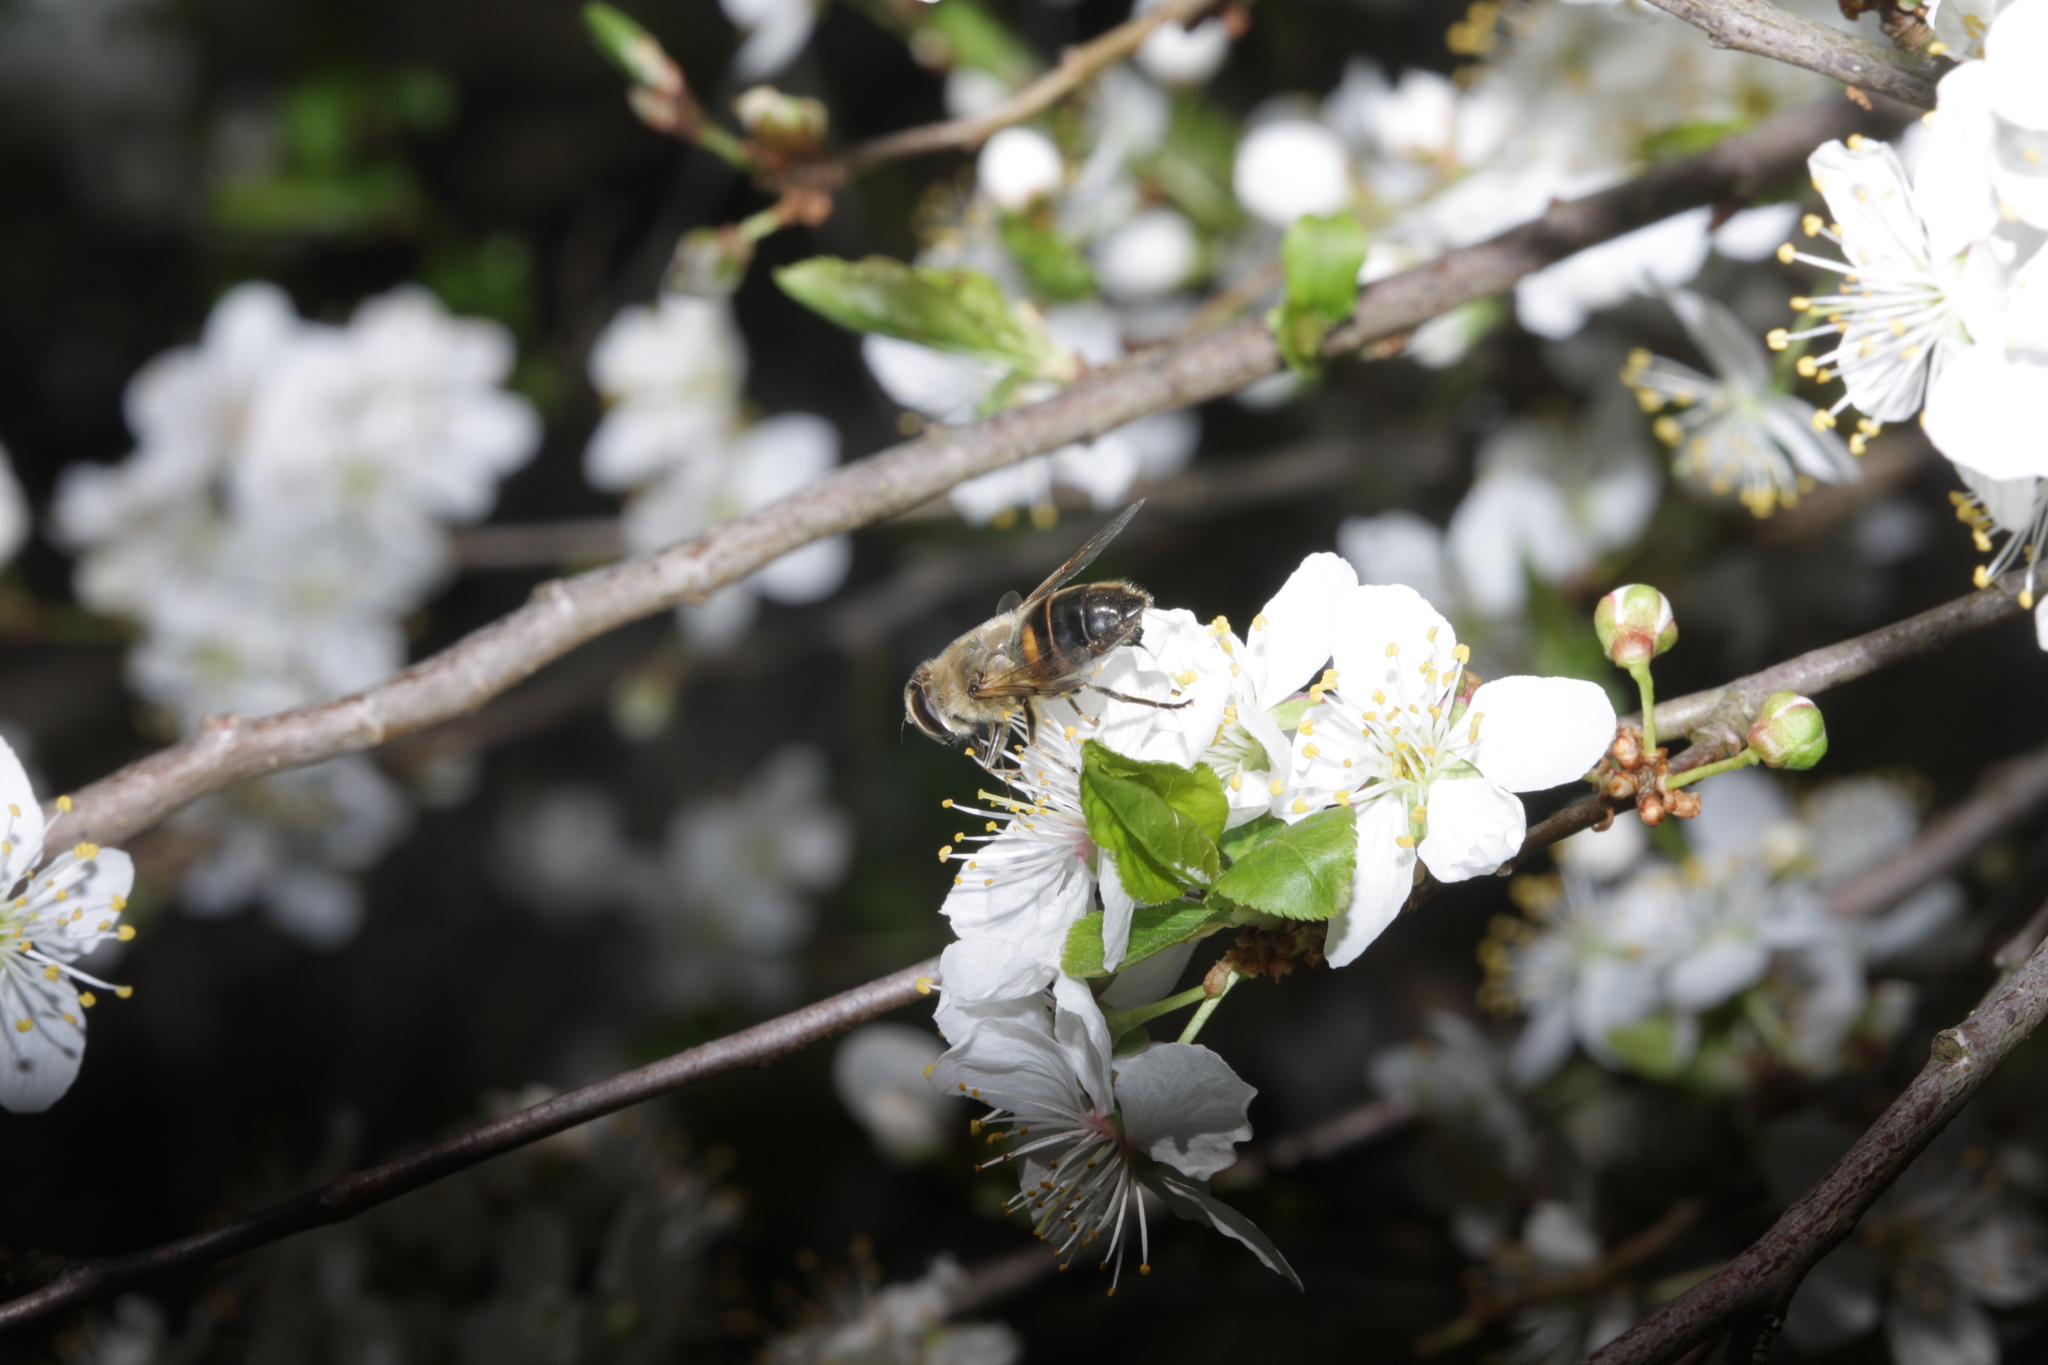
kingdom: Animalia
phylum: Arthropoda
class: Insecta
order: Diptera
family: Syrphidae
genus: Eristalis
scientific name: Eristalis tenax
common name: Drone fly
